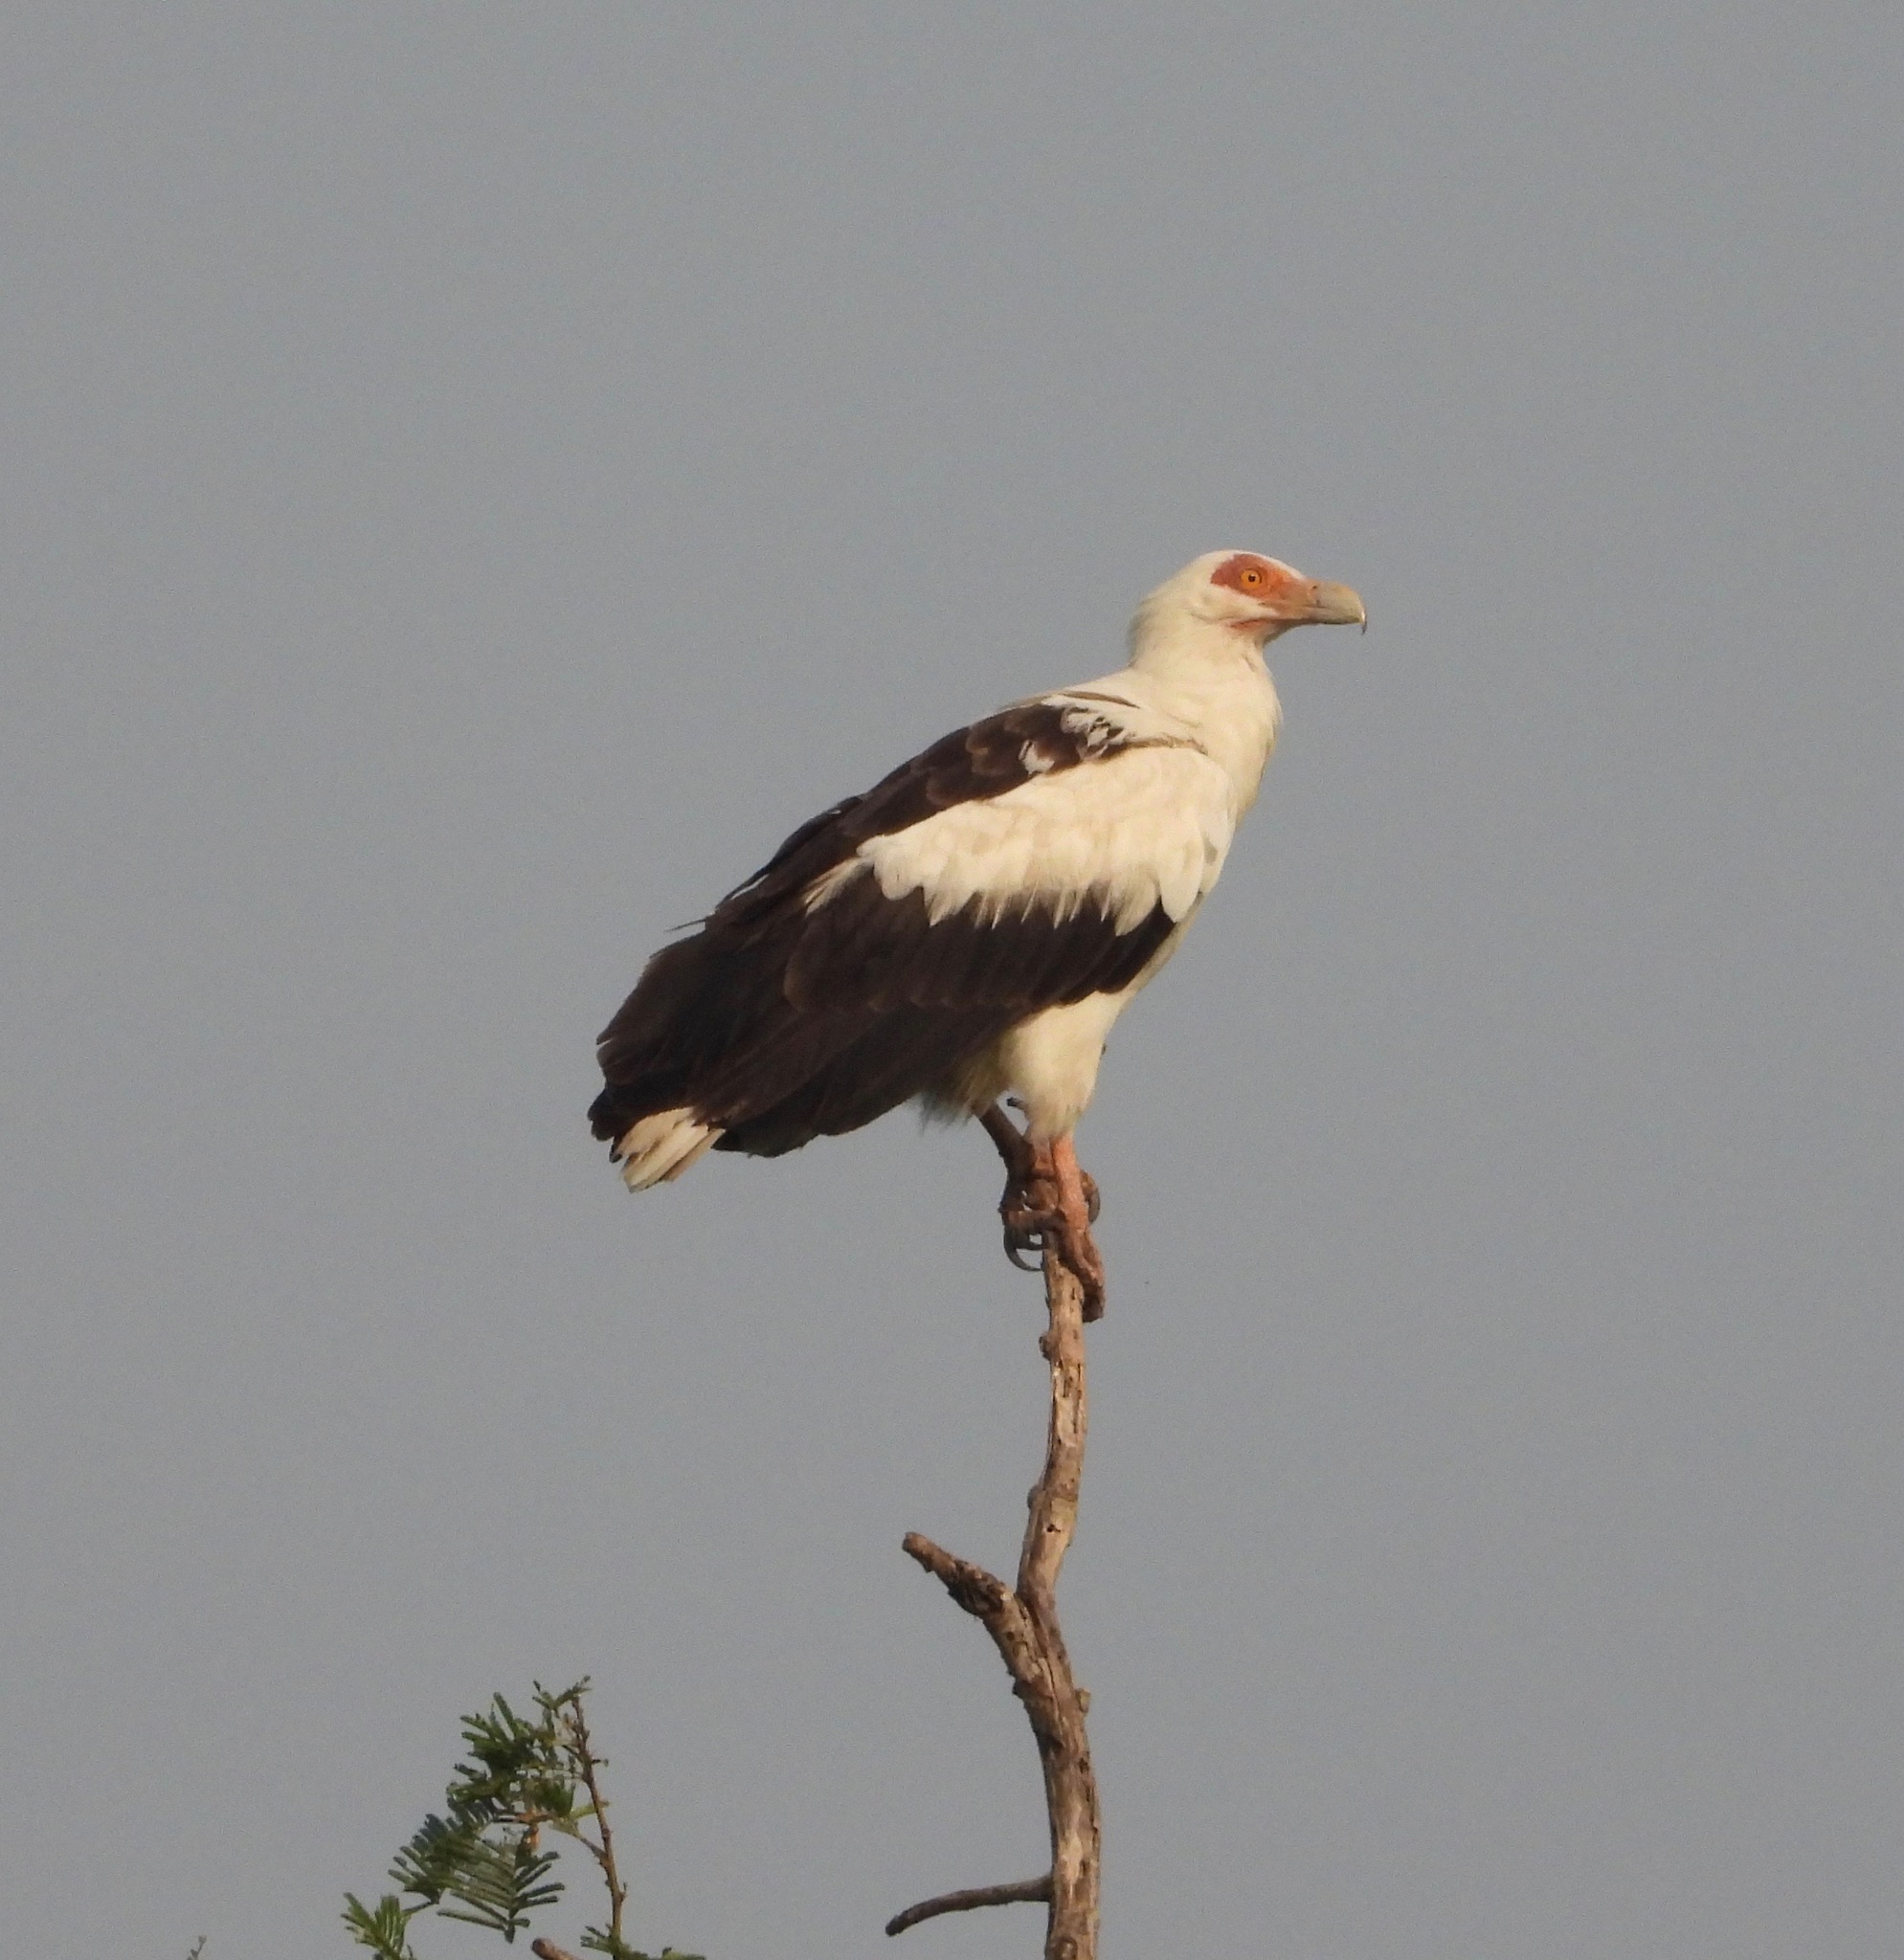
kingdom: Animalia
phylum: Chordata
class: Aves
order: Accipitriformes
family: Accipitridae
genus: Gypohierax
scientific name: Gypohierax angolensis
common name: Palm-nut vulture
